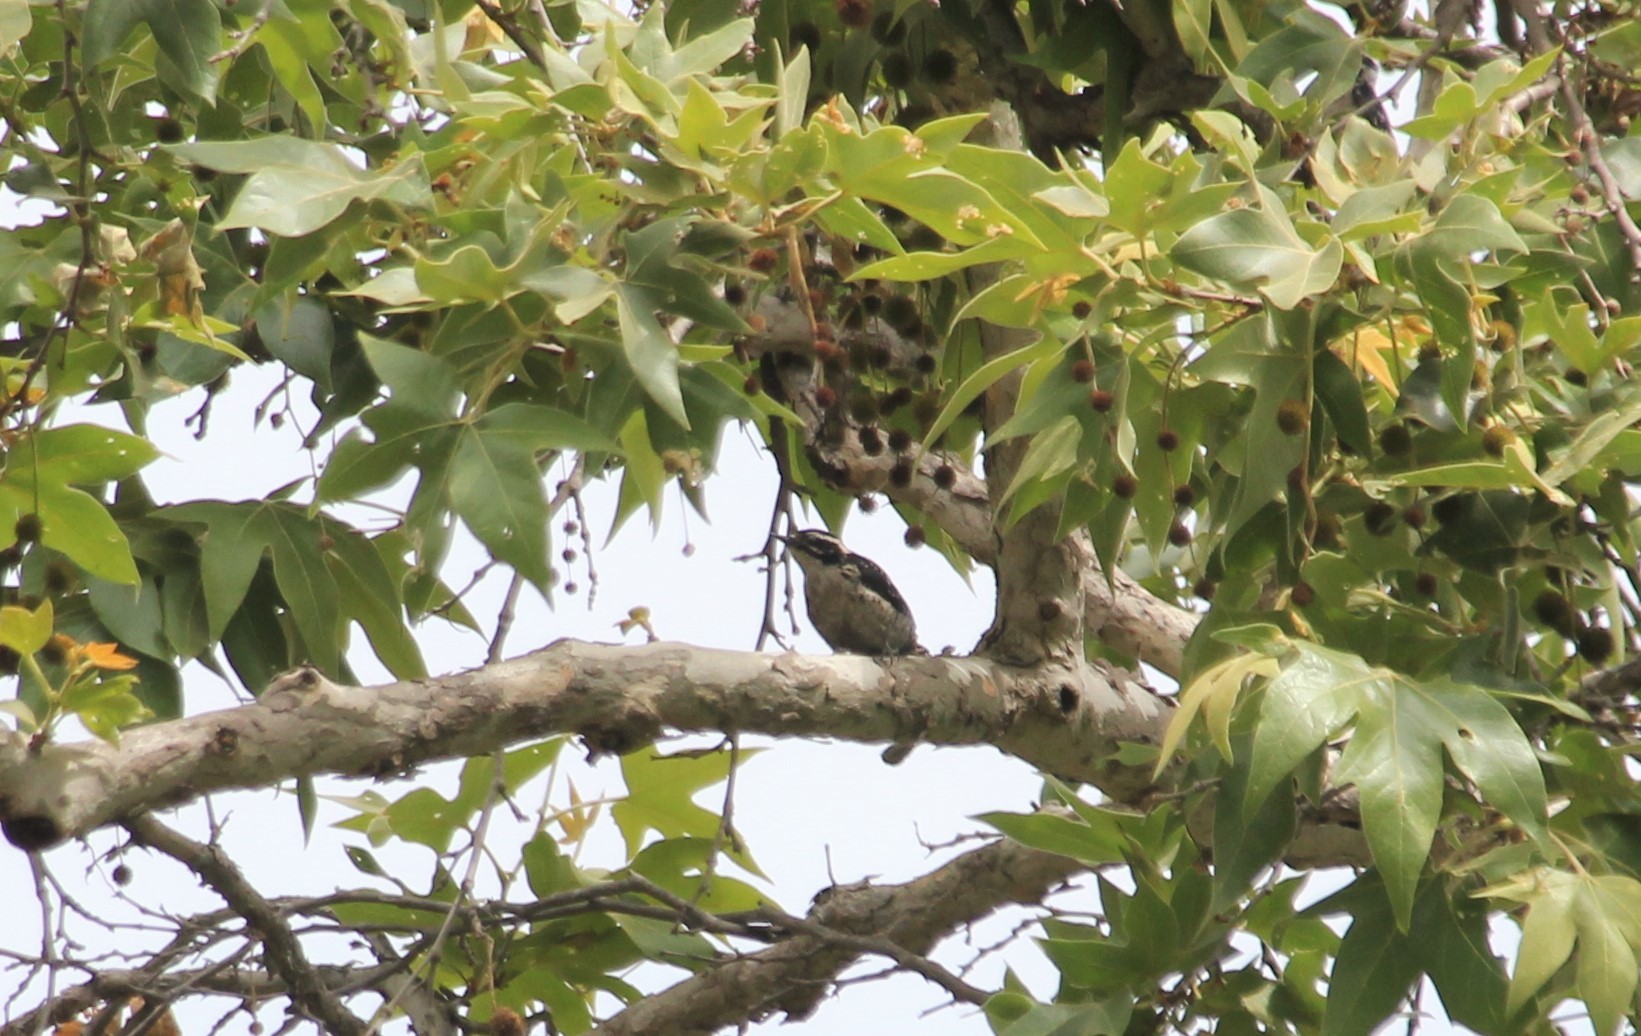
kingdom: Animalia
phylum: Chordata
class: Aves
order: Piciformes
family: Picidae
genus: Dryobates
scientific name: Dryobates pubescens
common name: Downy woodpecker
